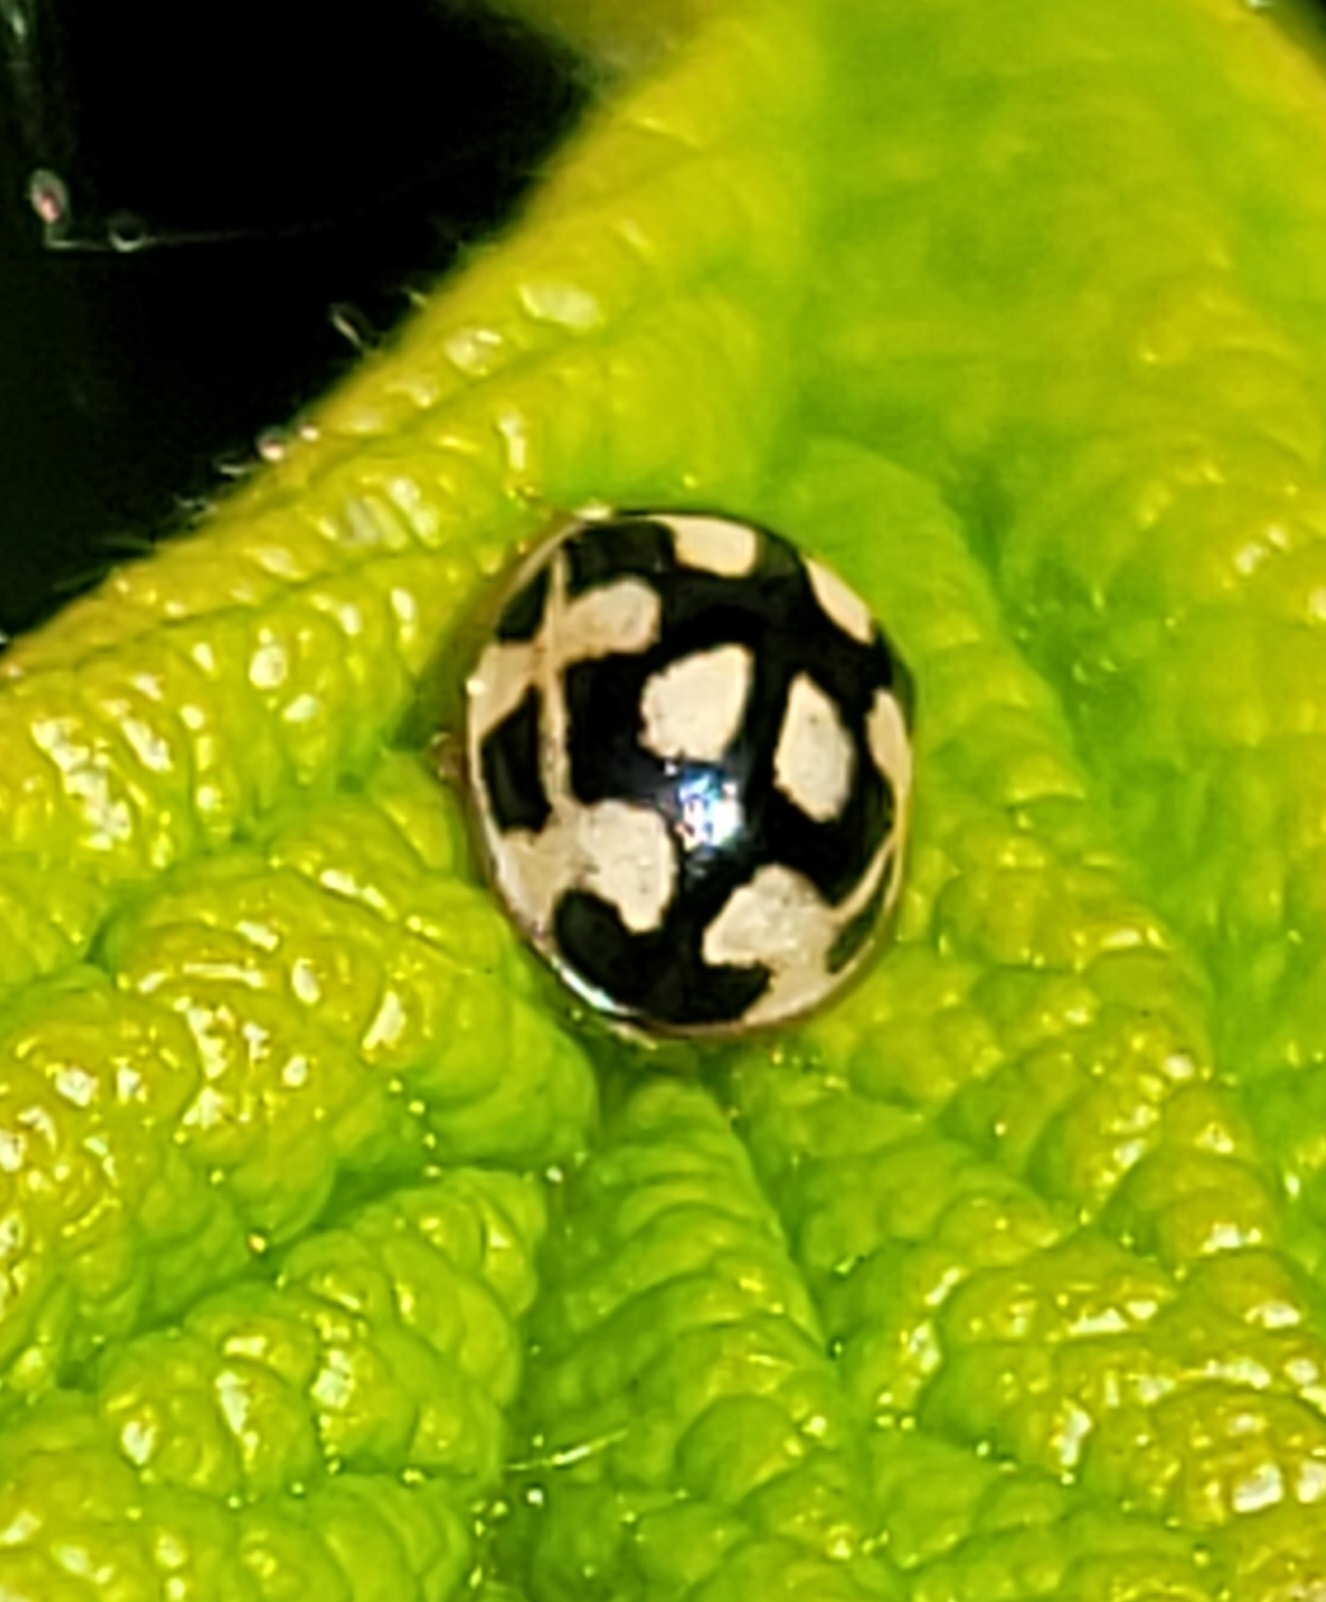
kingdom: Animalia
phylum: Arthropoda
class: Insecta
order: Coleoptera
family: Coccinellidae
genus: Propylaea
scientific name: Propylaea quatuordecimpunctata
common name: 14-spotted ladybird beetle
